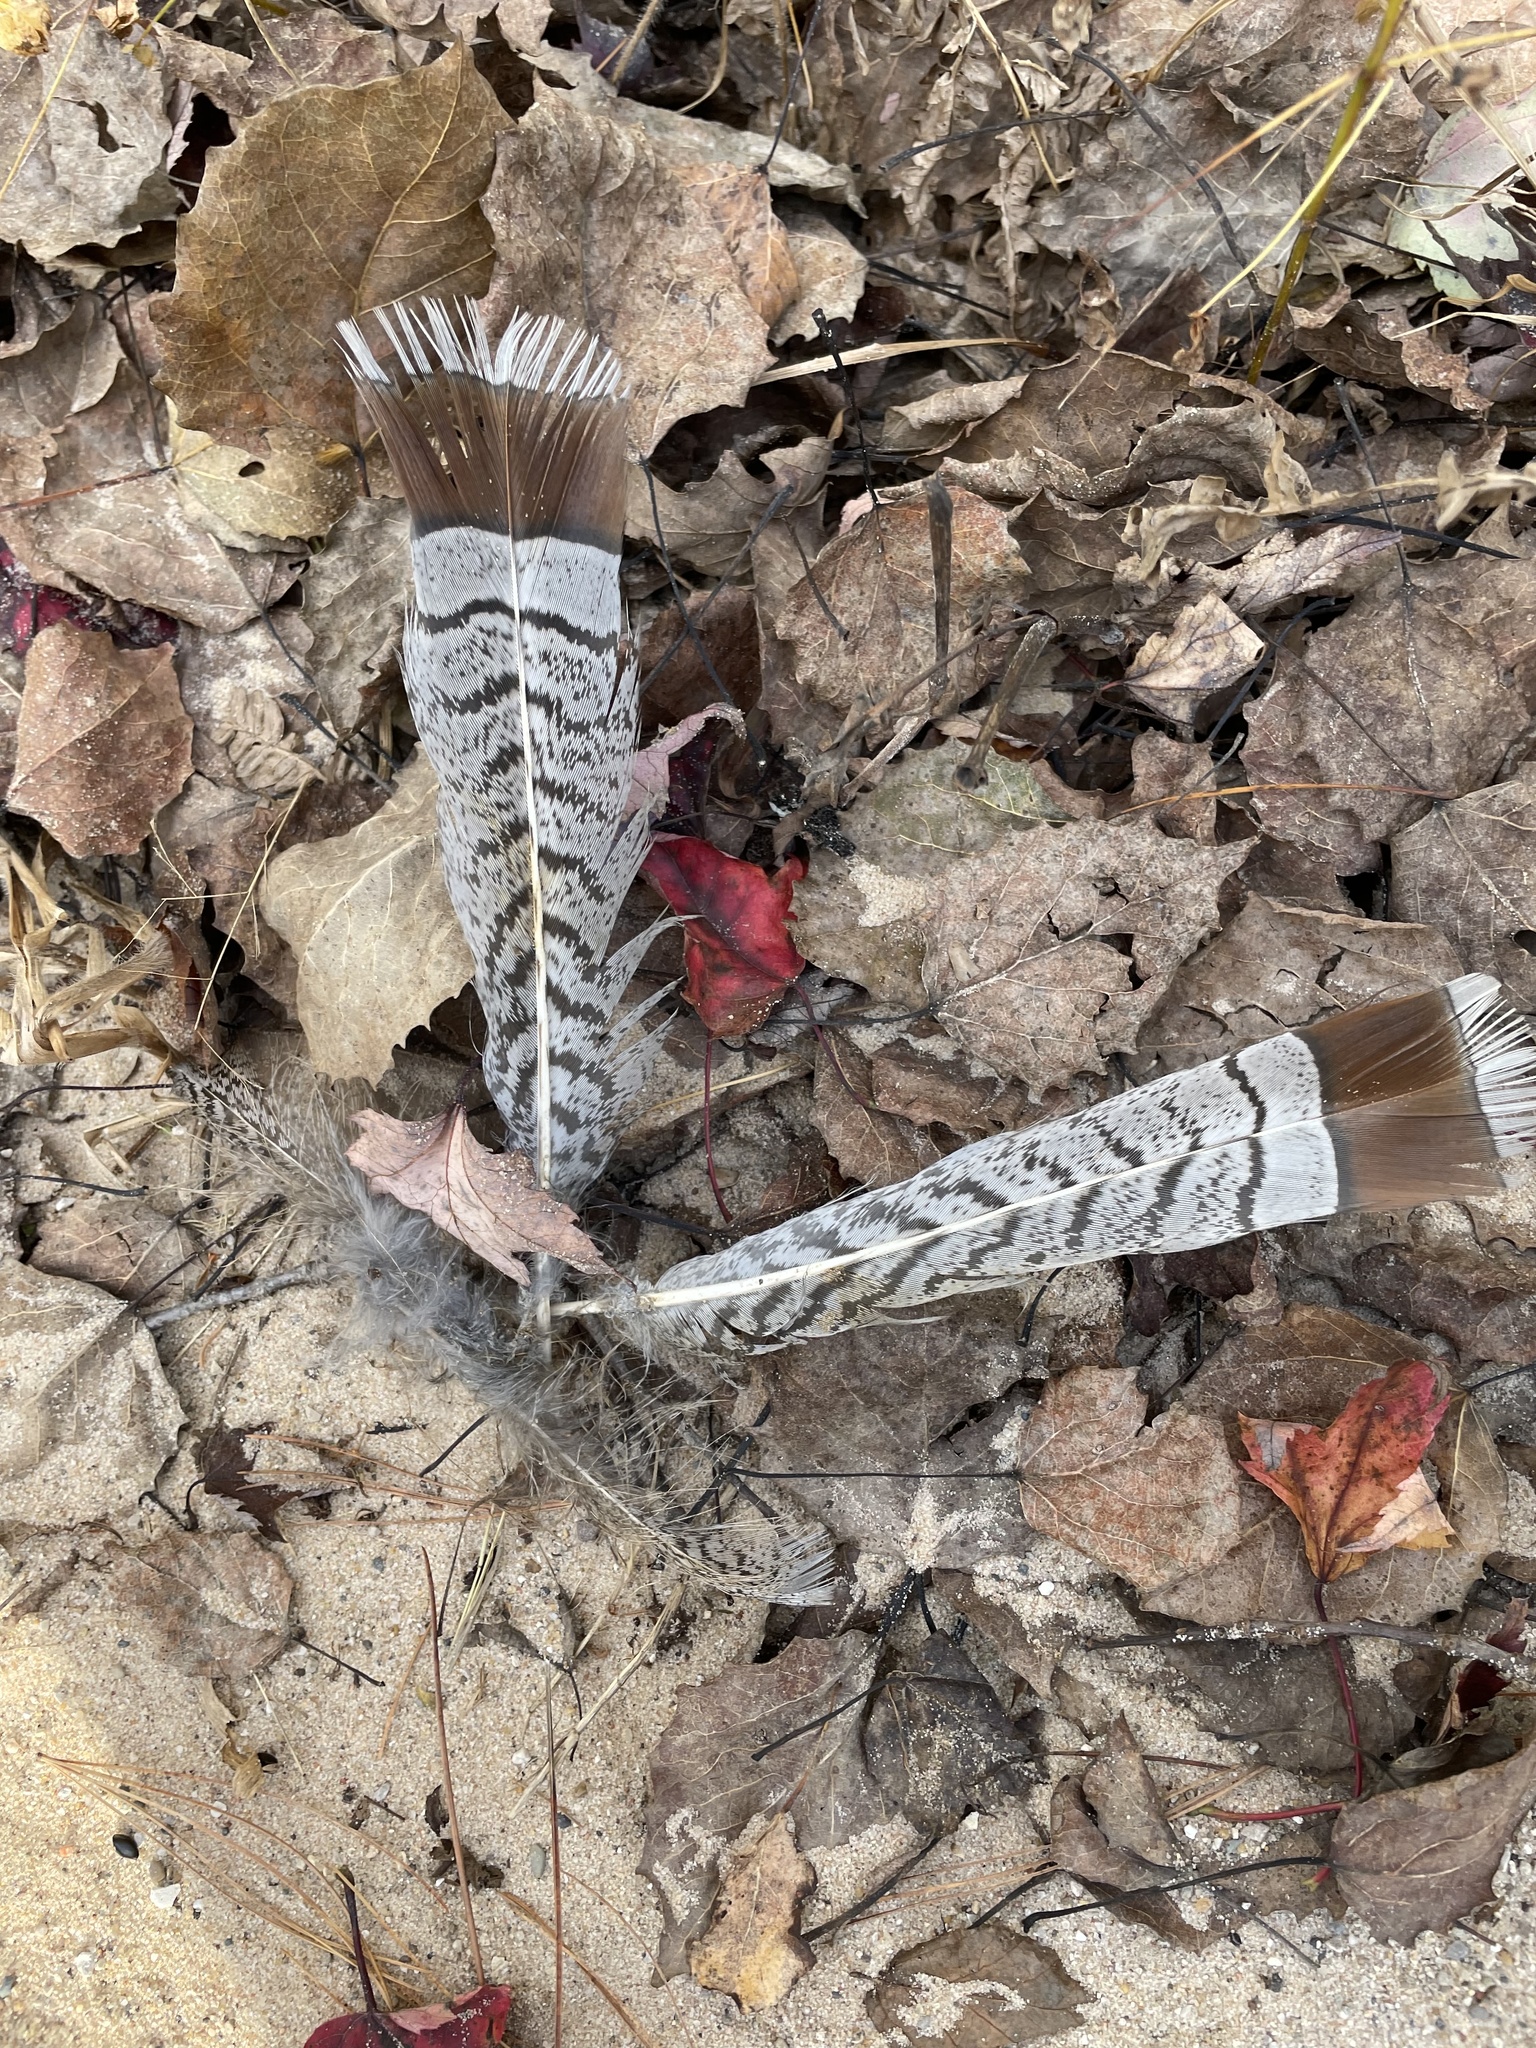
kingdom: Animalia
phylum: Chordata
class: Aves
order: Galliformes
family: Phasianidae
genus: Bonasa
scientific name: Bonasa umbellus
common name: Ruffed grouse
